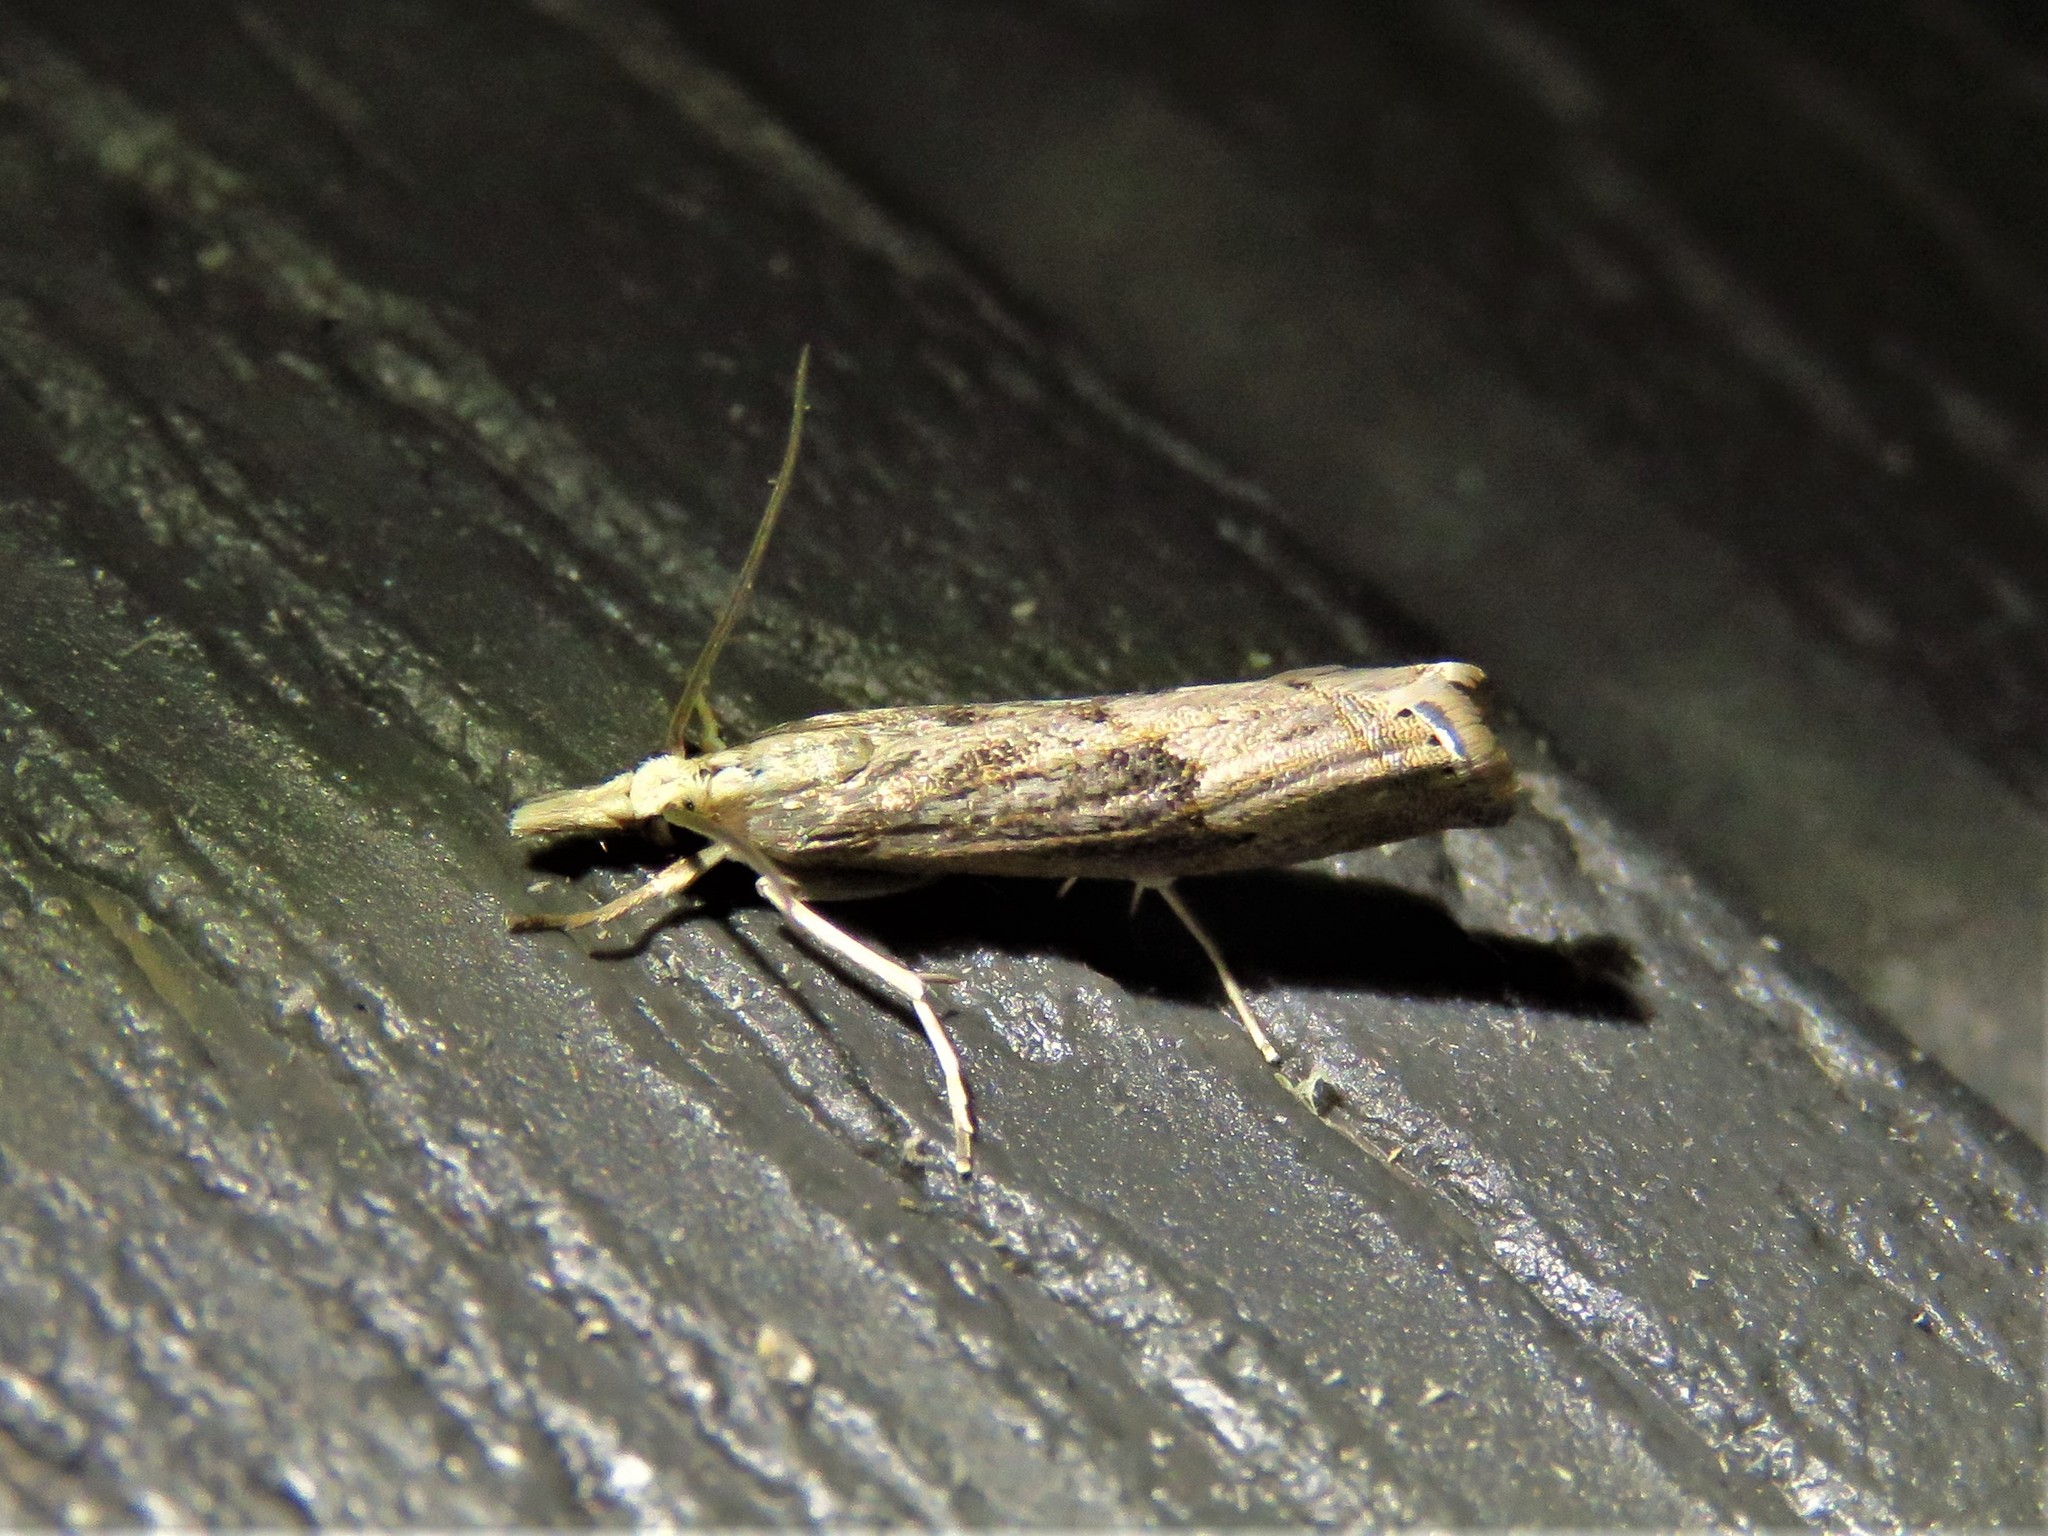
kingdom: Animalia
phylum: Arthropoda
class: Insecta
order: Lepidoptera
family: Crambidae
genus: Parapediasia
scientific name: Parapediasia teterellus
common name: Bluegrass webworm moth
